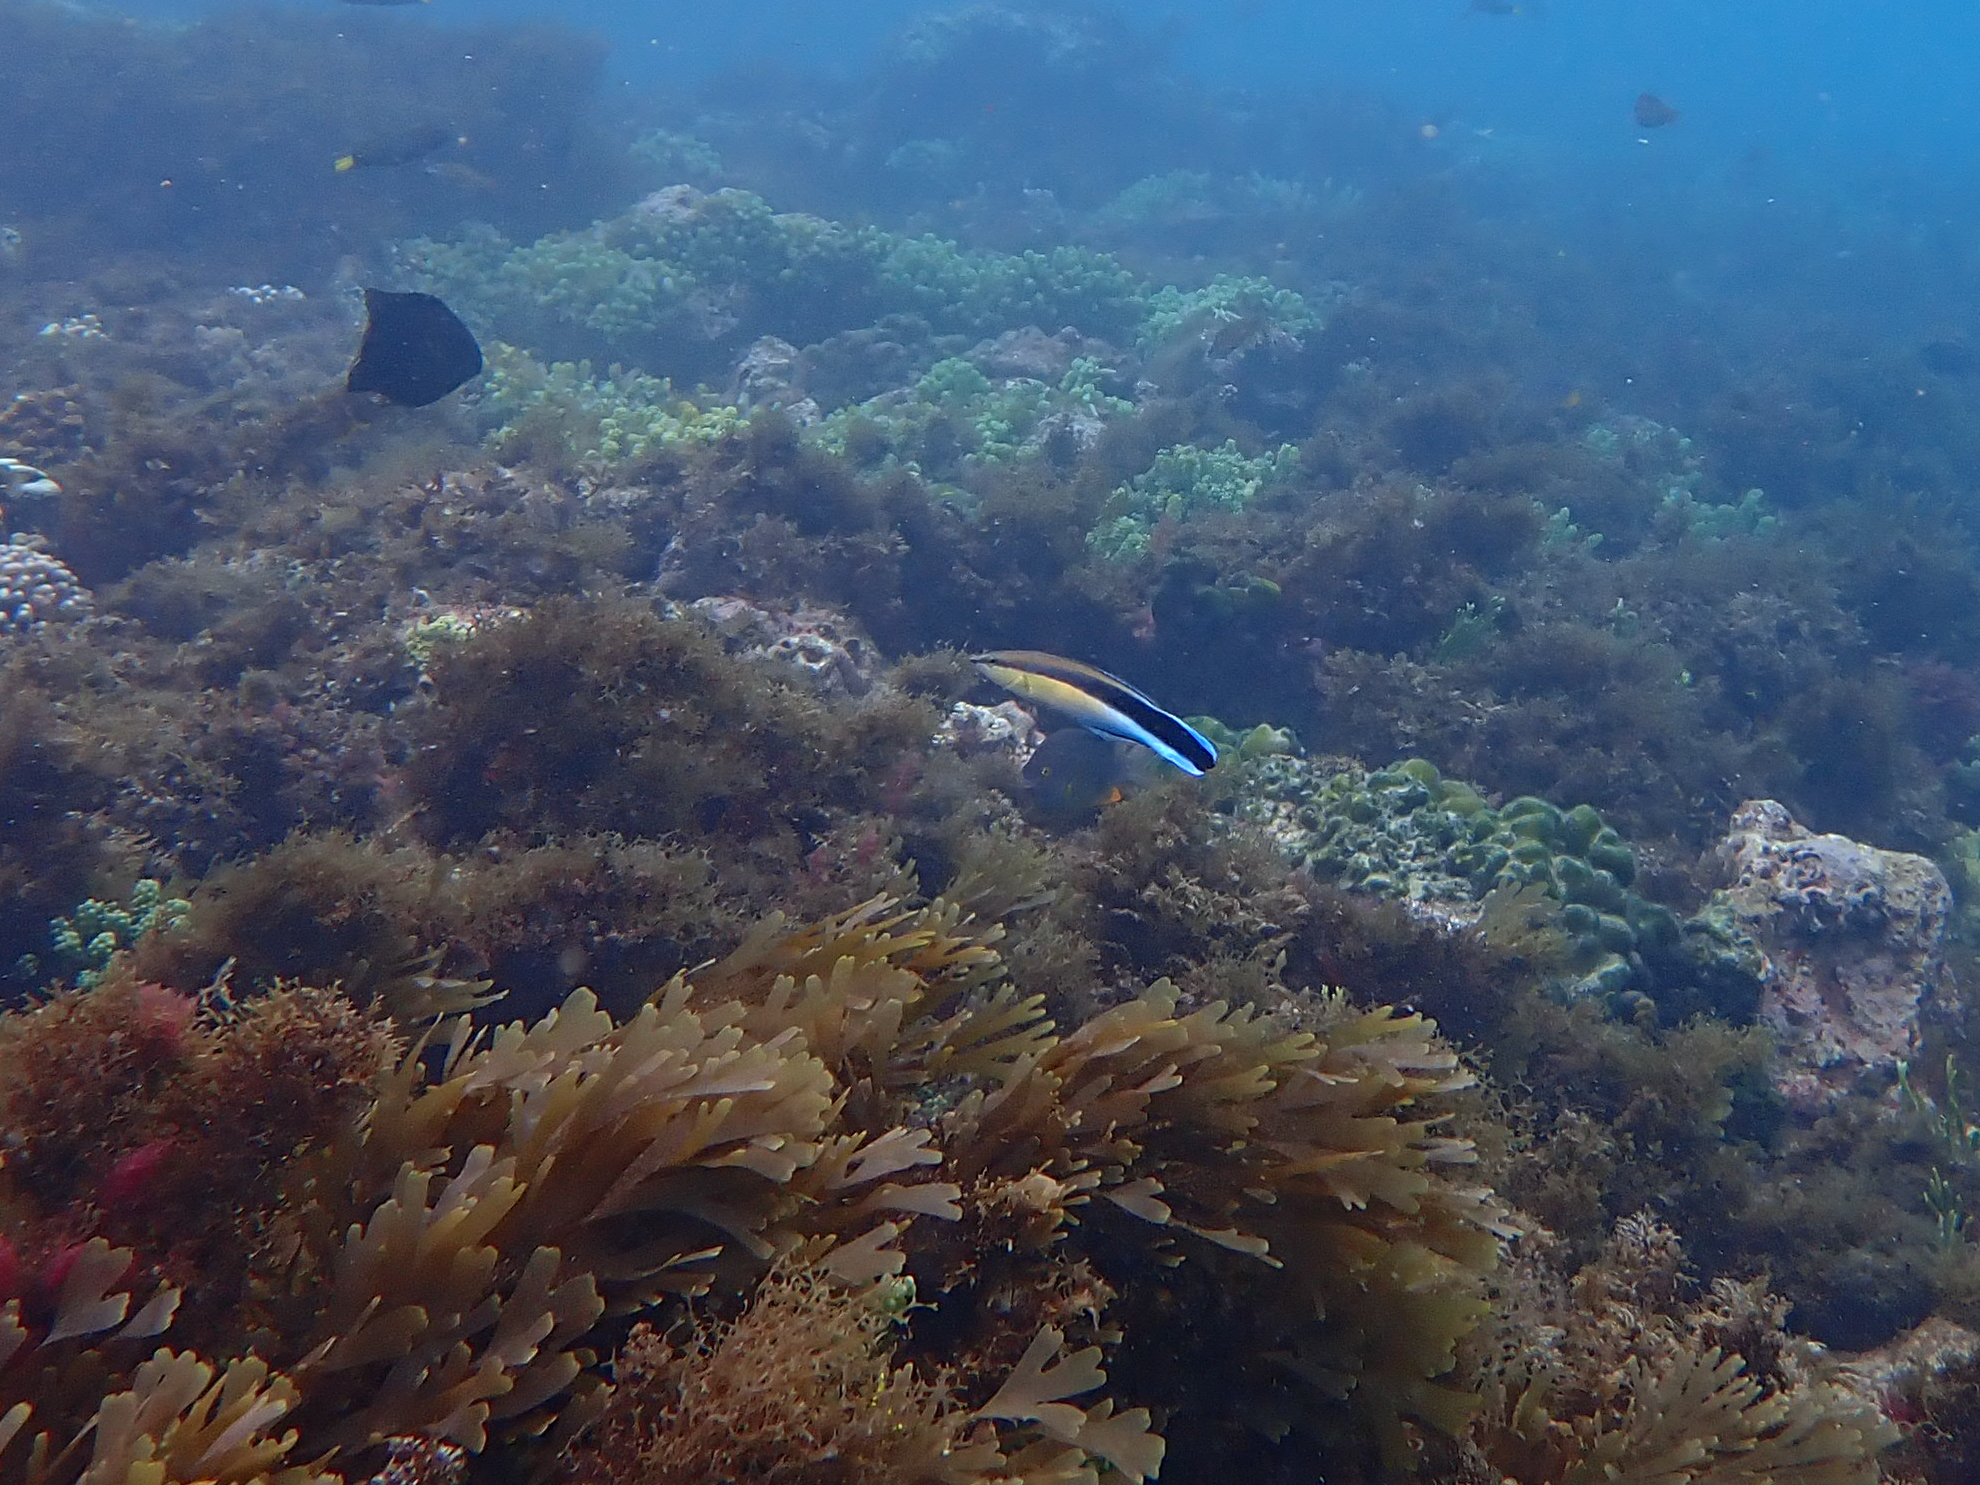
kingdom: Animalia
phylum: Chordata
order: Perciformes
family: Labridae
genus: Labroides
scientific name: Labroides dimidiatus
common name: Blue diesel wrasse
